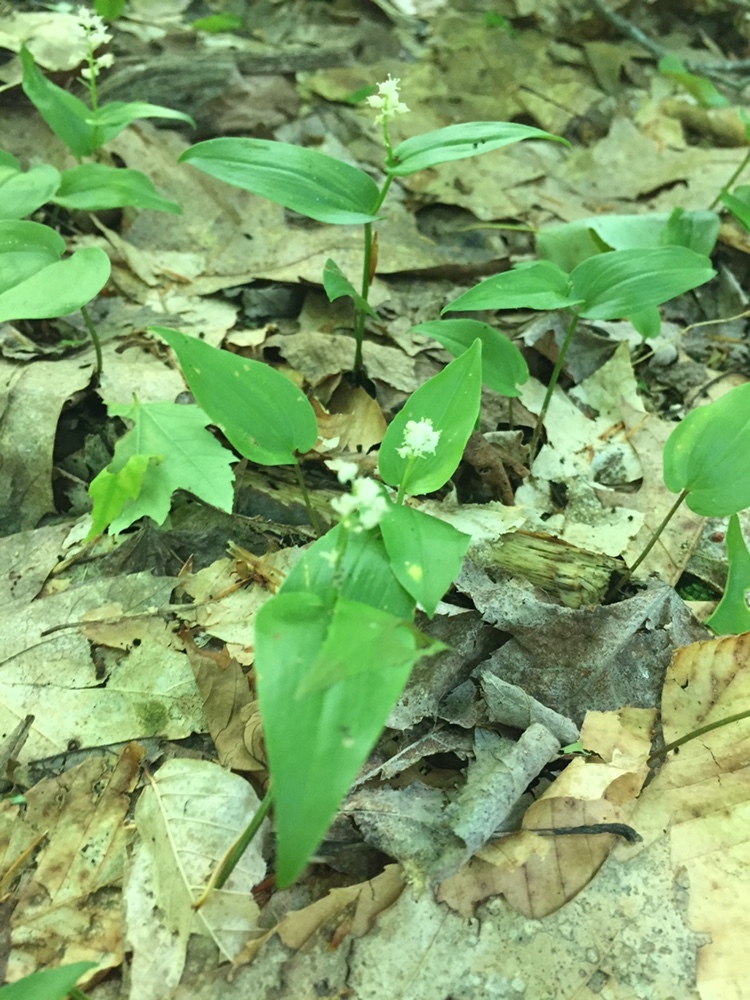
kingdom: Plantae
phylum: Tracheophyta
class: Liliopsida
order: Asparagales
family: Asparagaceae
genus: Maianthemum
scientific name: Maianthemum canadense
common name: False lily-of-the-valley
